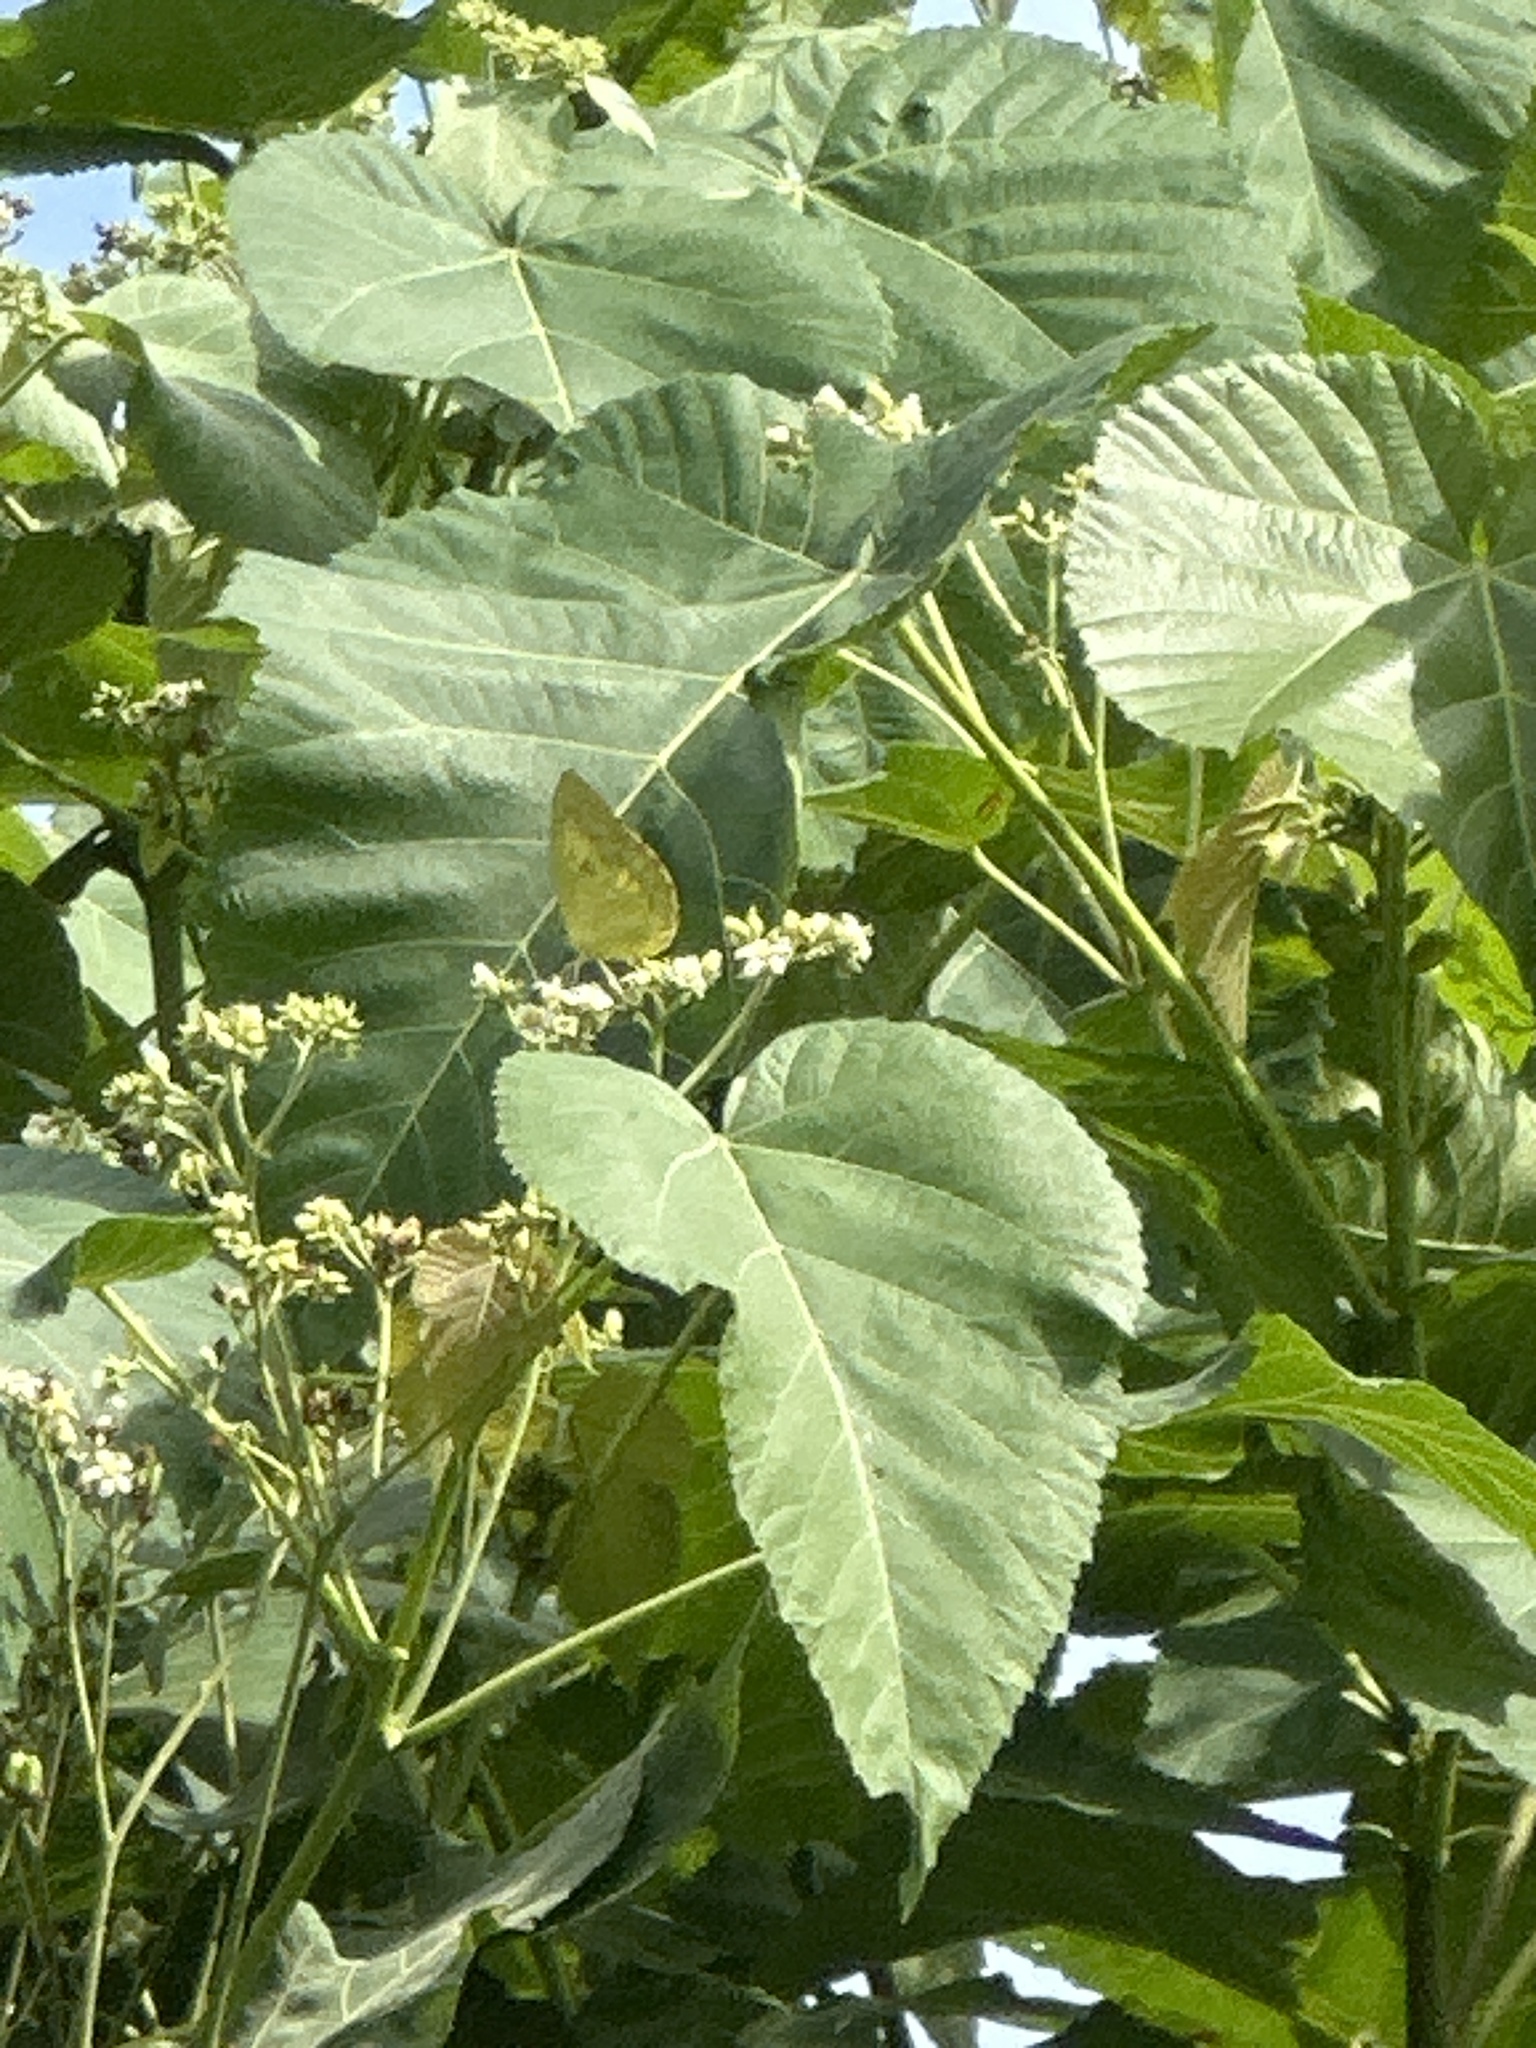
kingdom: Animalia
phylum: Arthropoda
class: Insecta
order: Lepidoptera
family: Pieridae
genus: Catopsilia
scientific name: Catopsilia pomona
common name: Common emigrant
